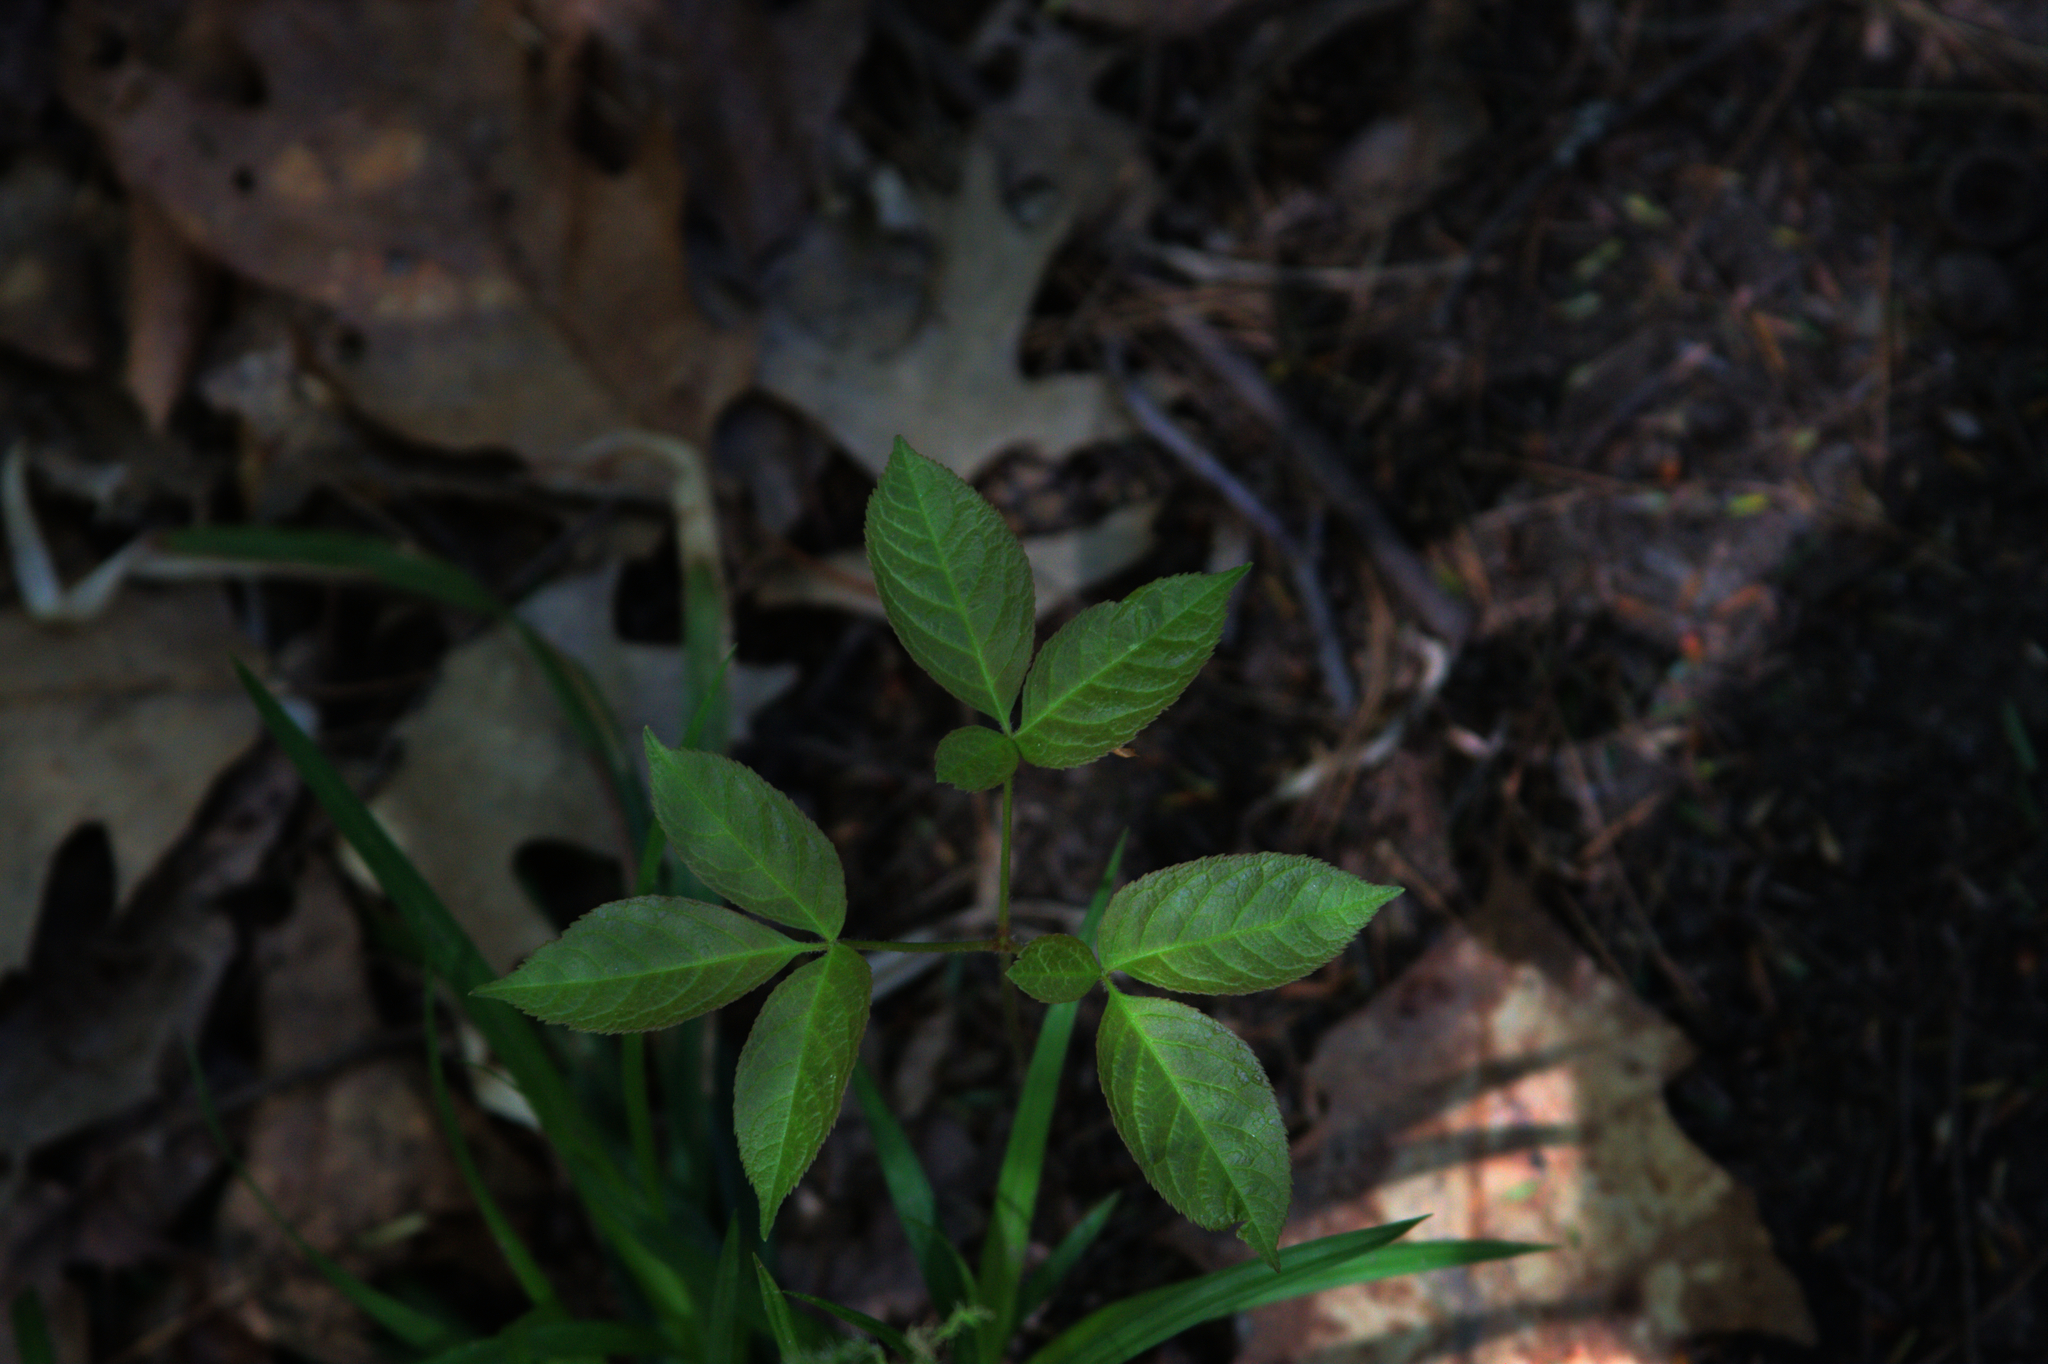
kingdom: Plantae
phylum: Tracheophyta
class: Magnoliopsida
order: Apiales
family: Araliaceae
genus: Aralia
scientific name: Aralia nudicaulis
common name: Wild sarsaparilla
